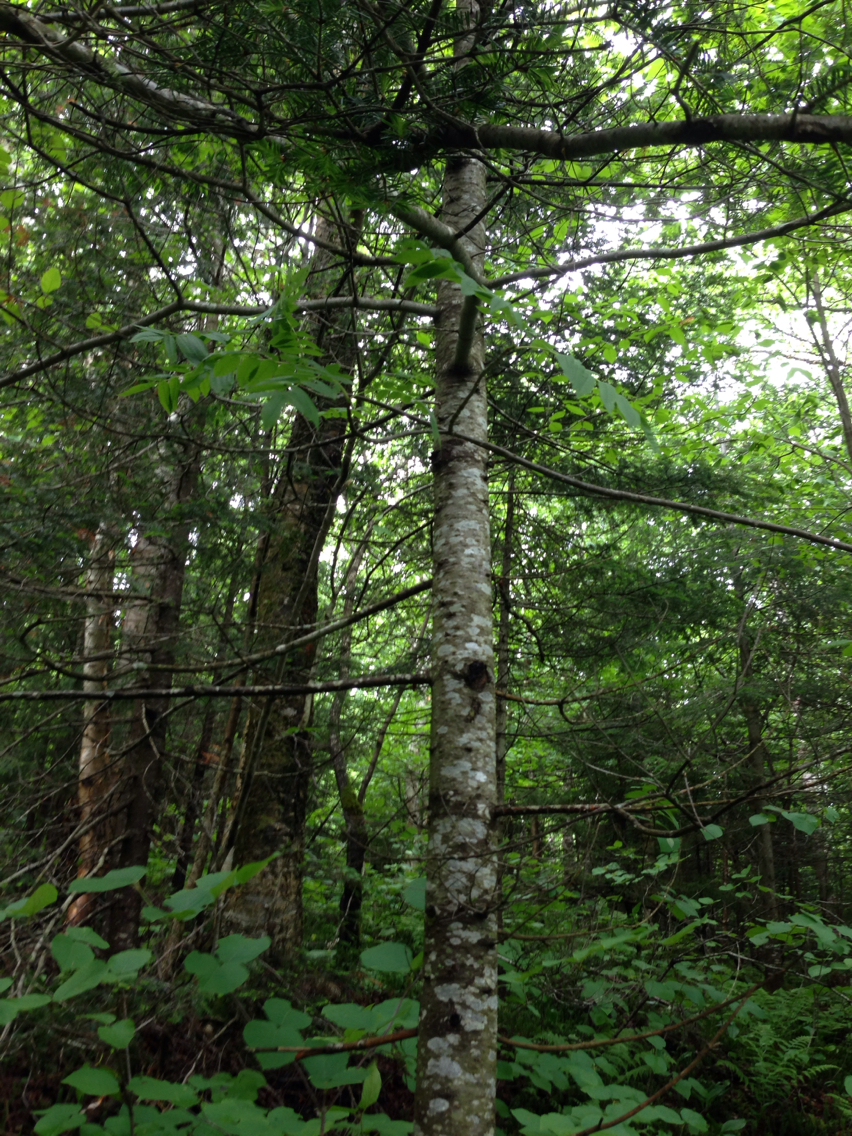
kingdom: Plantae
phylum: Tracheophyta
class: Pinopsida
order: Pinales
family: Pinaceae
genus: Abies
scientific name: Abies balsamea
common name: Balsam fir
